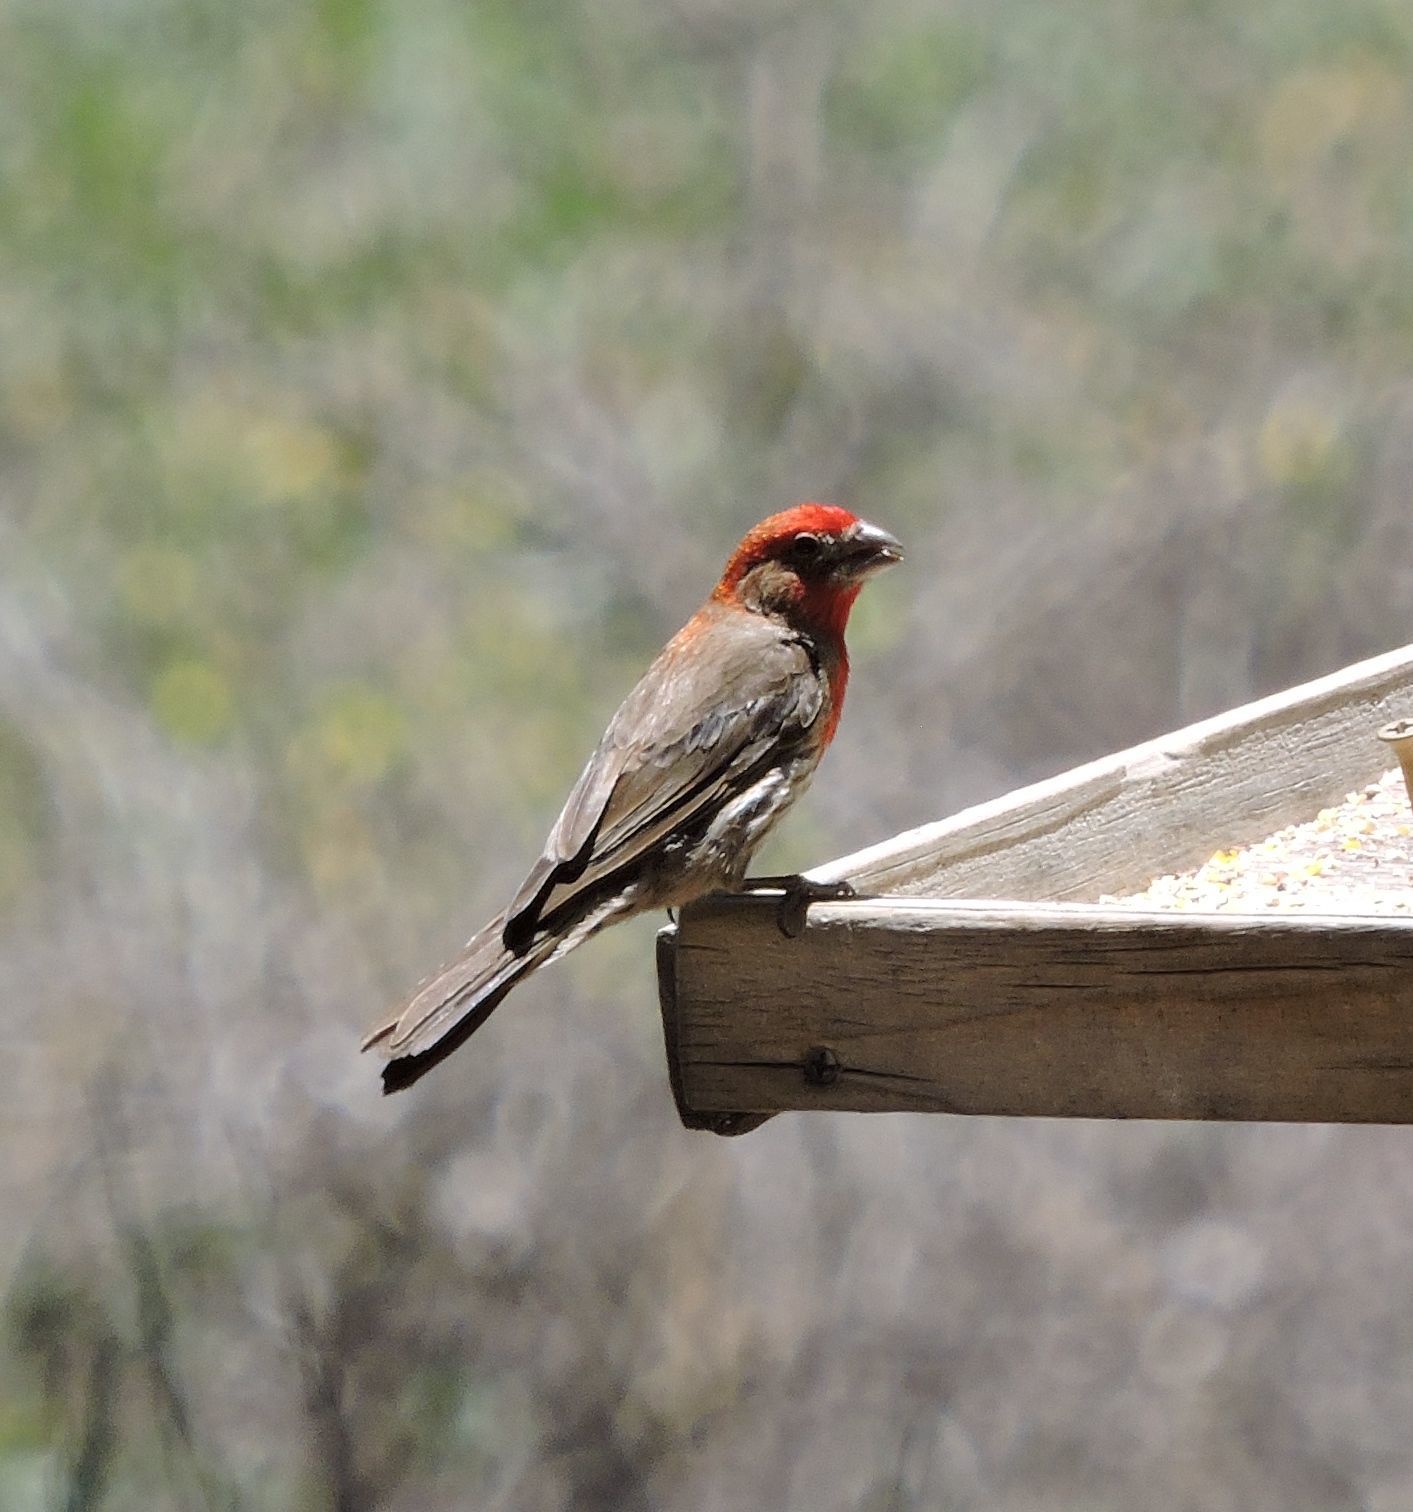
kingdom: Animalia
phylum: Chordata
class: Aves
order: Passeriformes
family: Fringillidae
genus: Haemorhous
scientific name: Haemorhous mexicanus
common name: House finch
